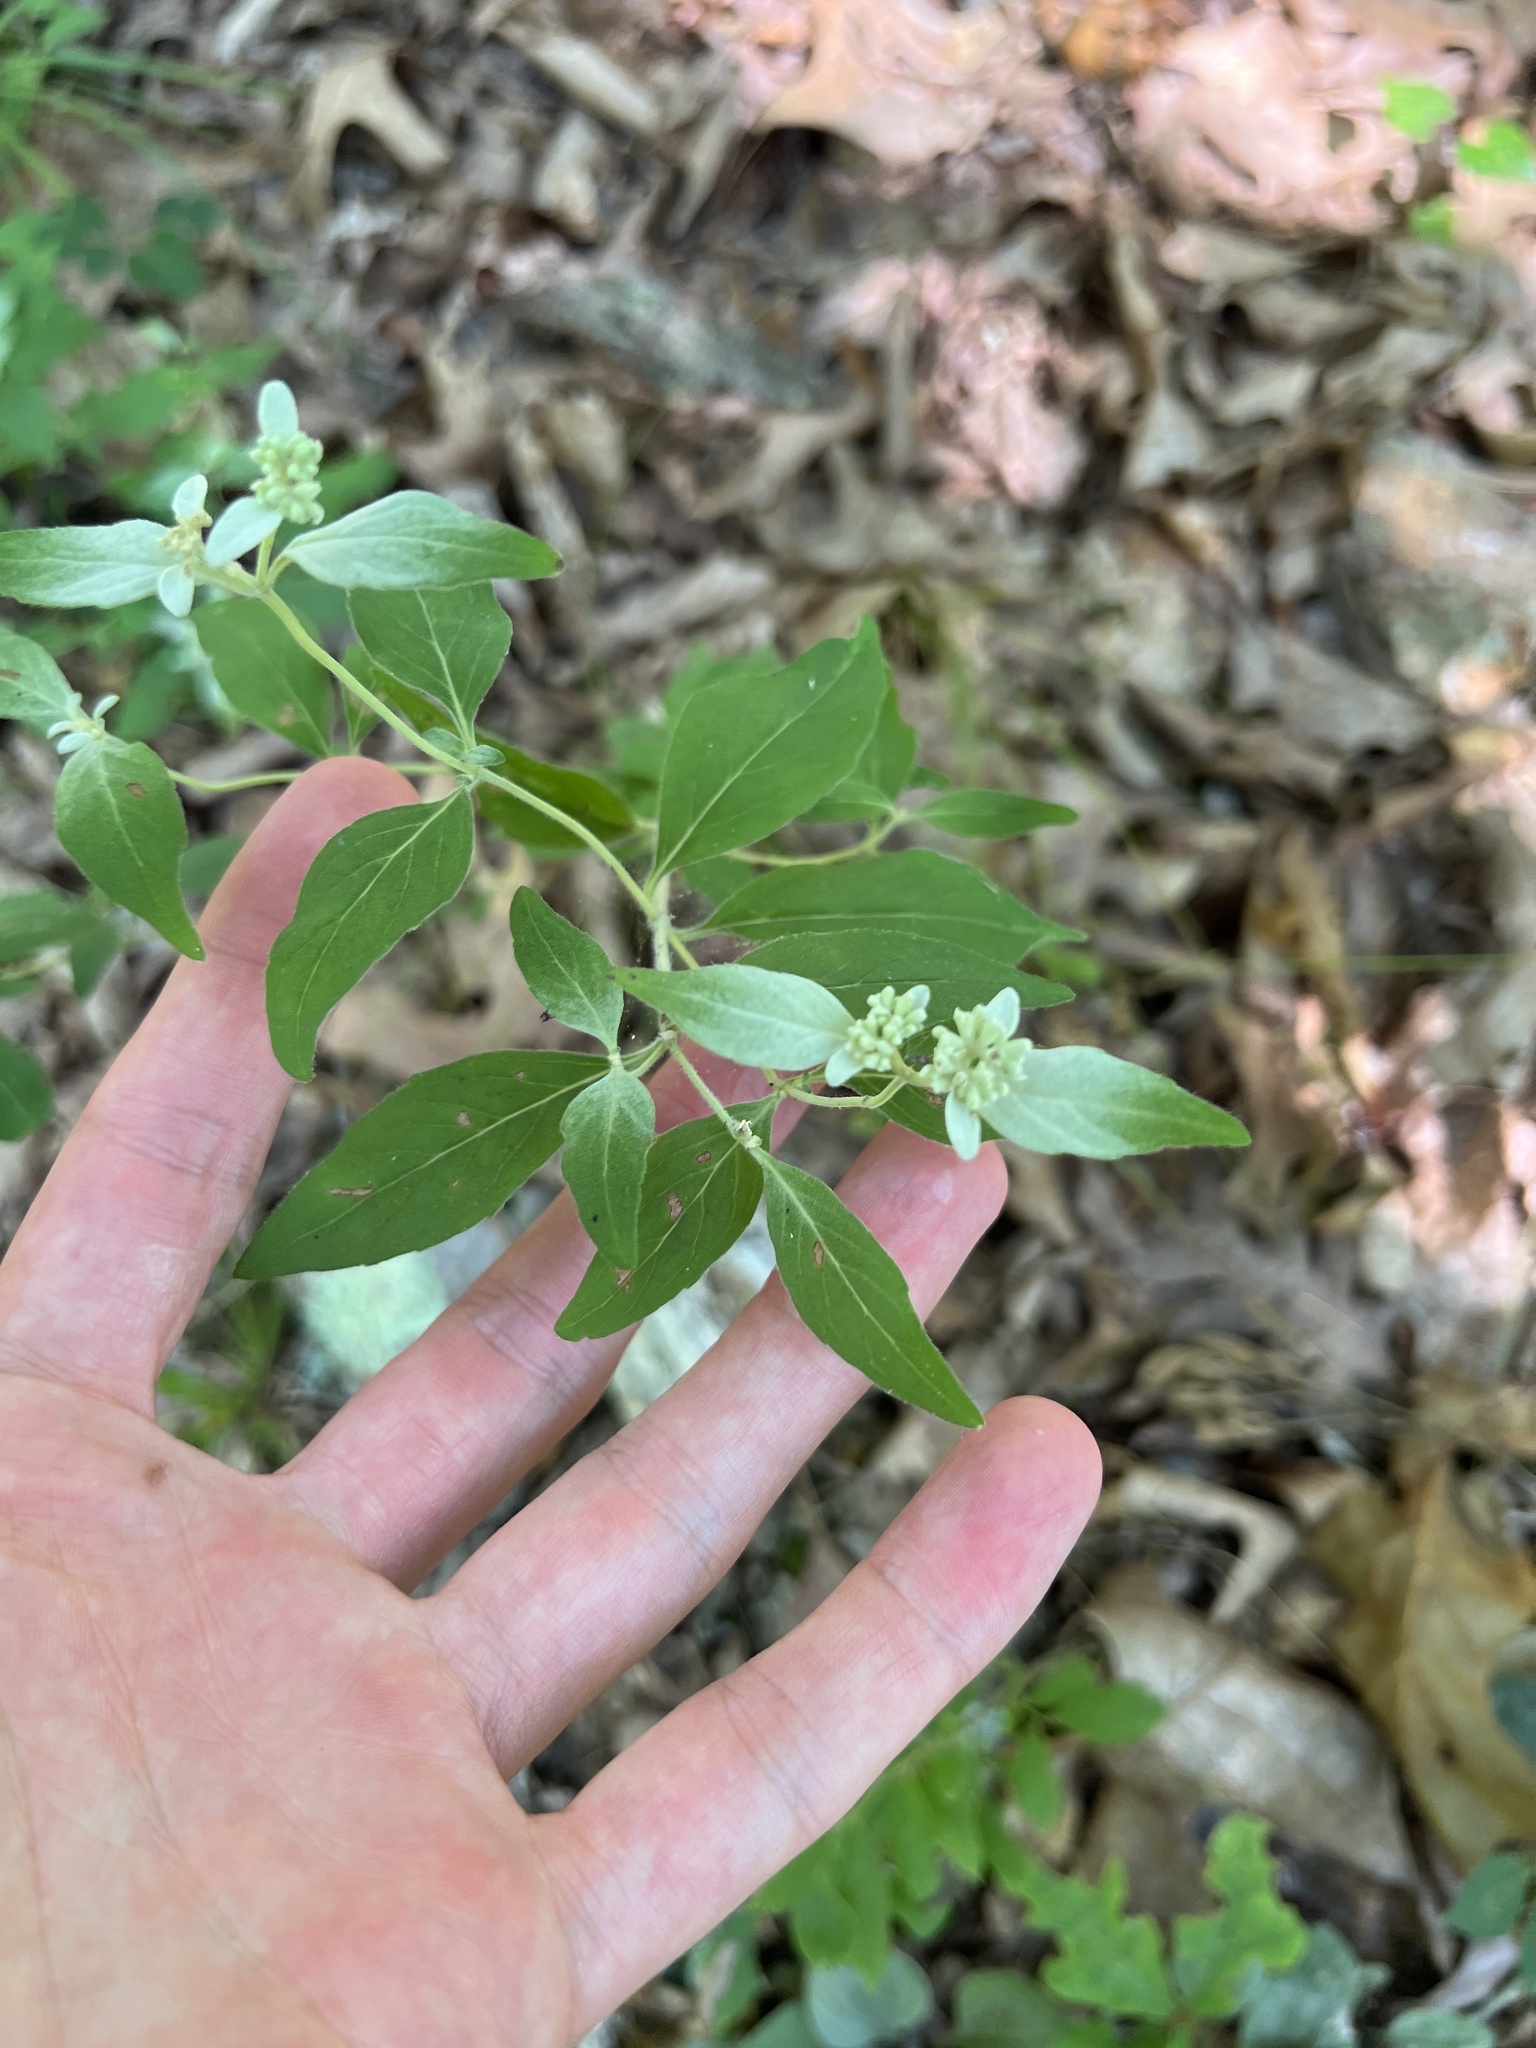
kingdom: Plantae
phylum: Tracheophyta
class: Magnoliopsida
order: Lamiales
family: Lamiaceae
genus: Pycnanthemum
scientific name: Pycnanthemum albescens
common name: White-leaf mountain-mint
